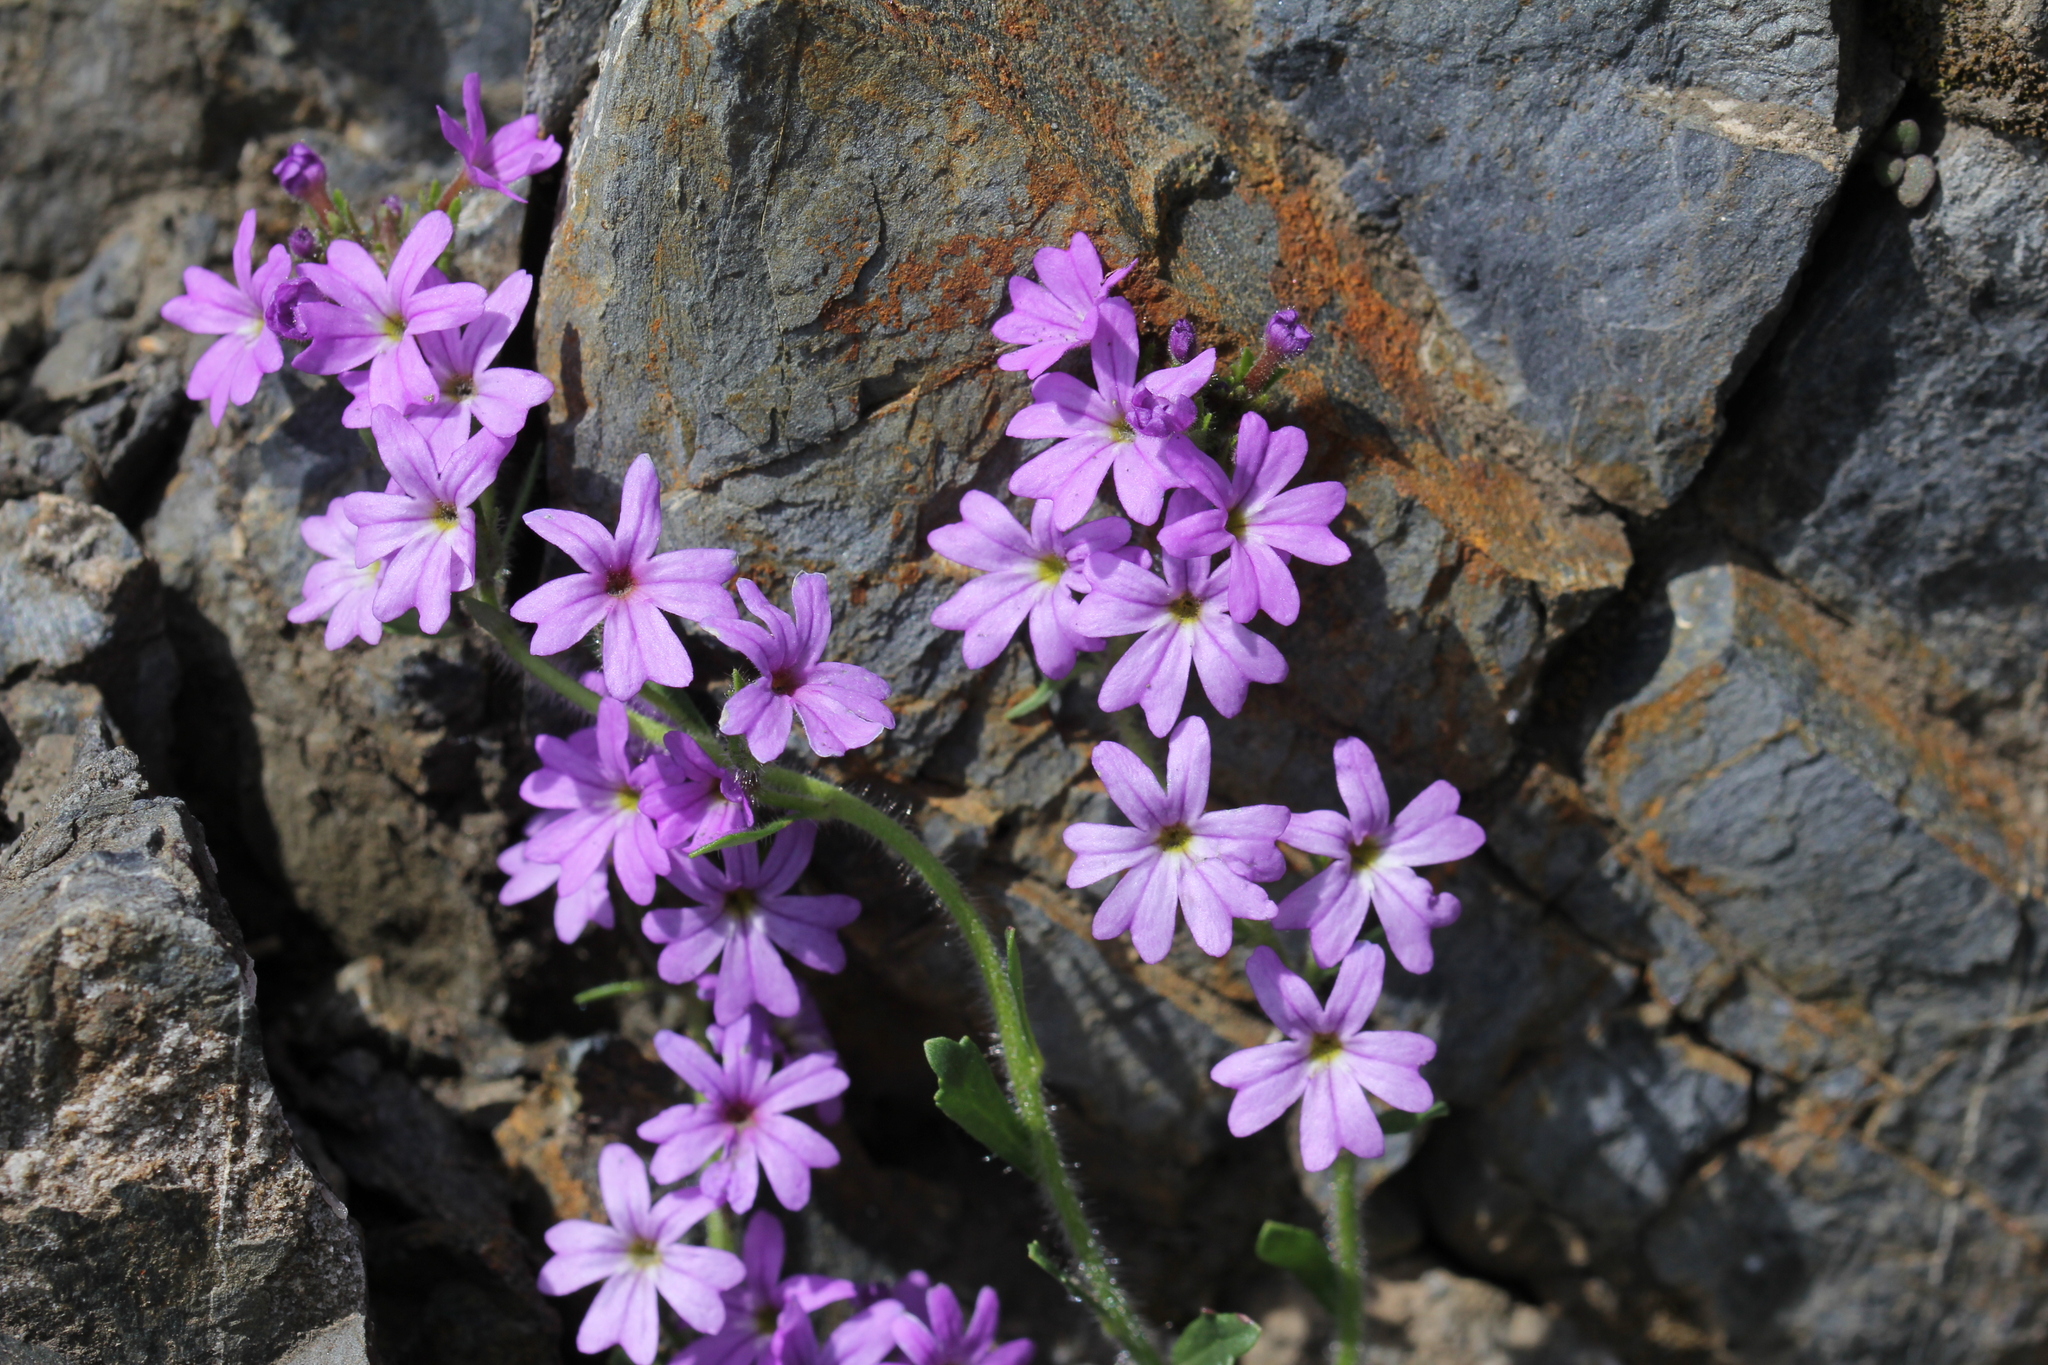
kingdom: Plantae
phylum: Tracheophyta
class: Magnoliopsida
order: Lamiales
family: Plantaginaceae
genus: Erinus
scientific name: Erinus alpinus
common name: Fairy foxglove
